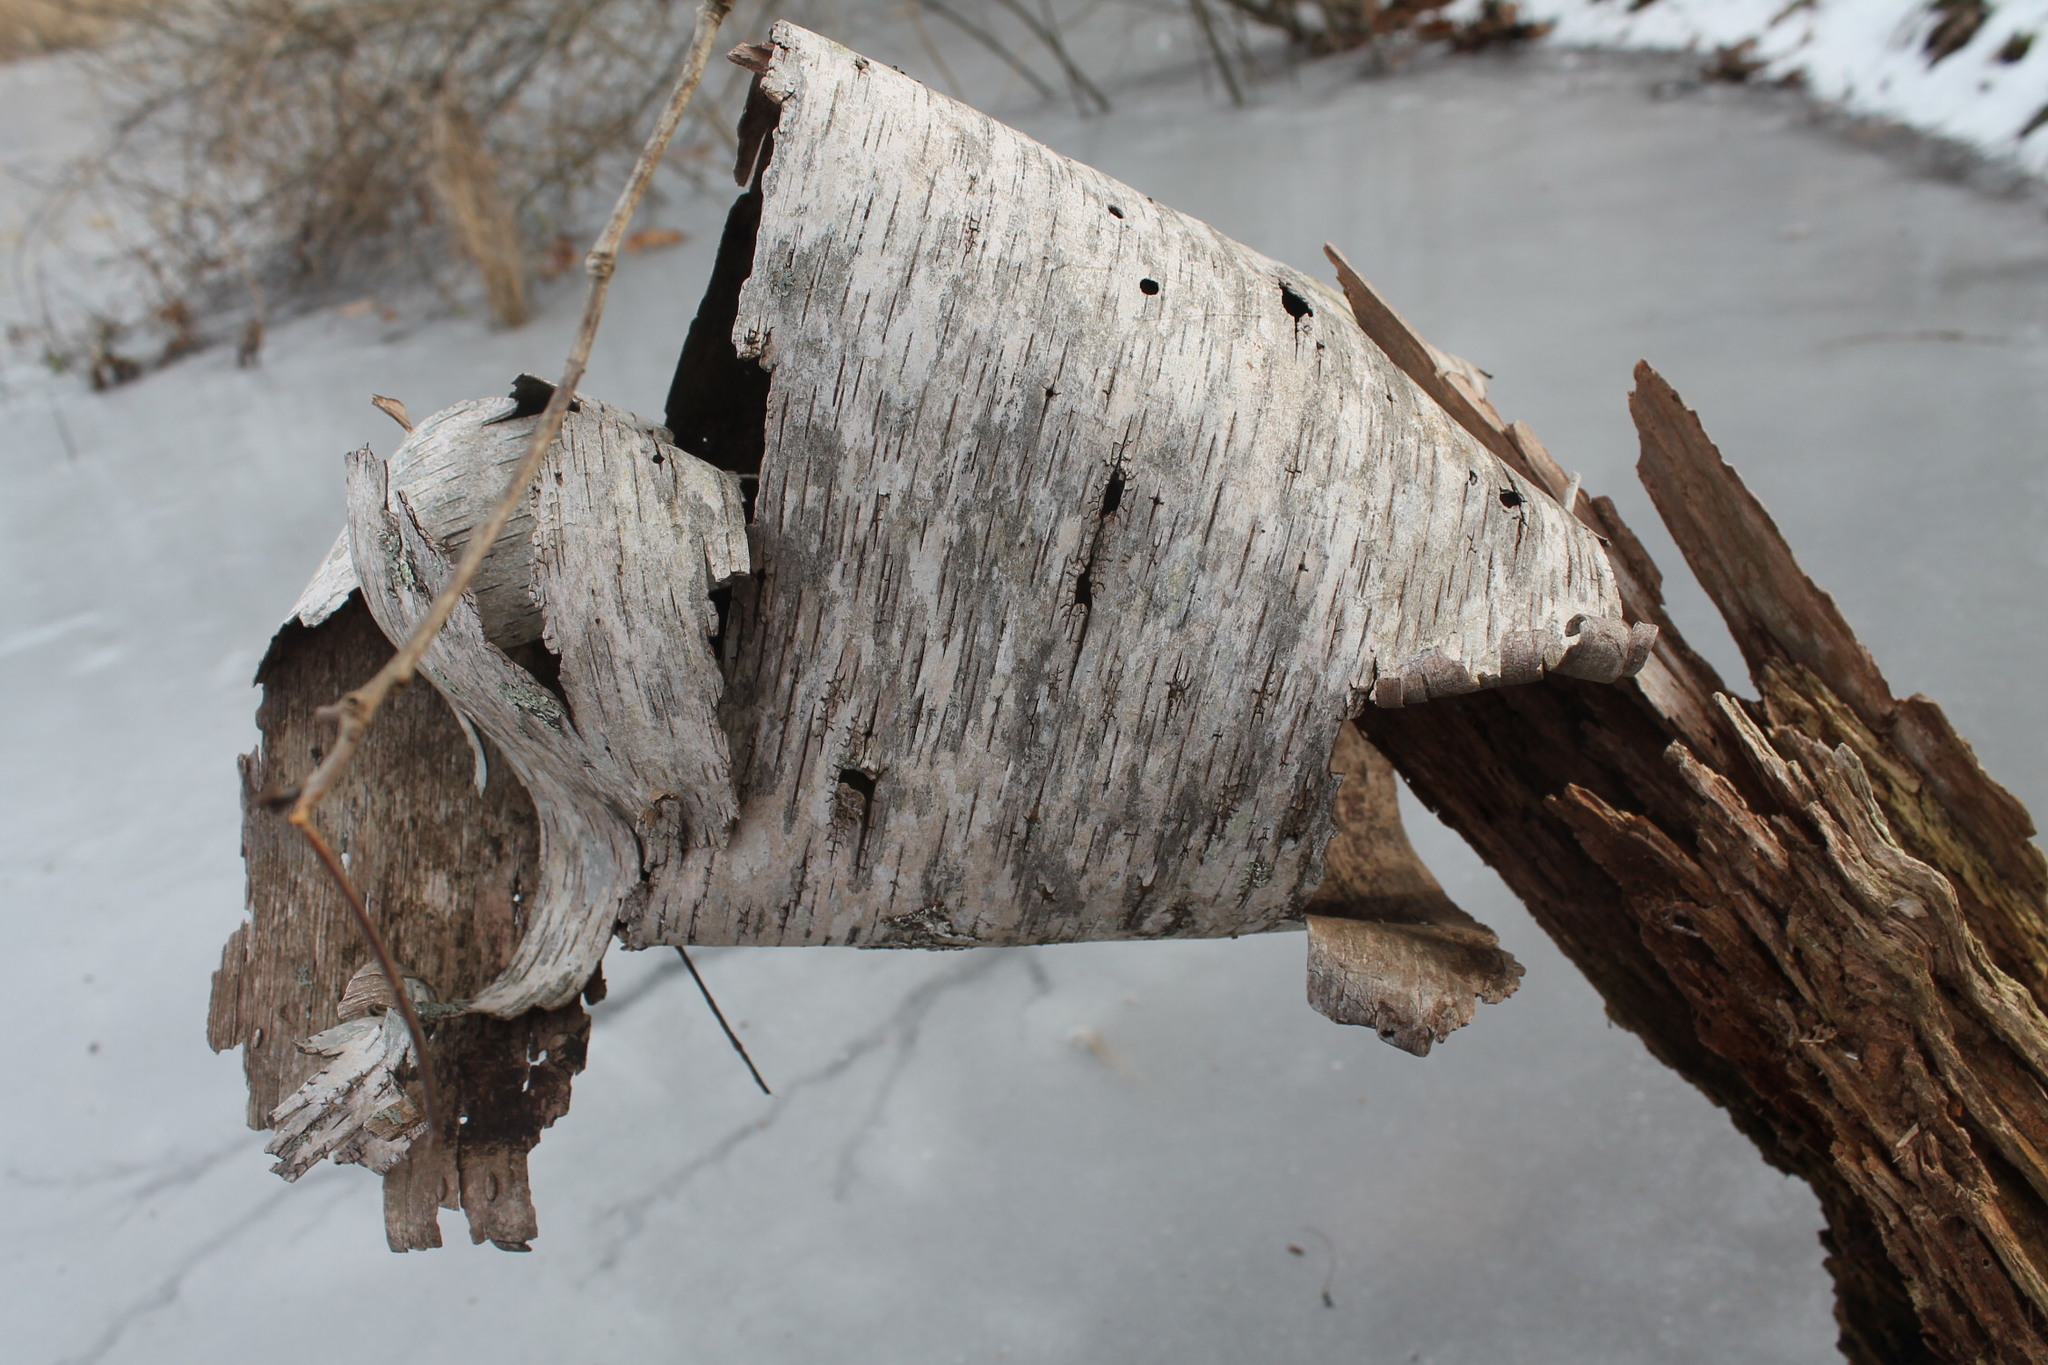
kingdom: Plantae
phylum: Tracheophyta
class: Magnoliopsida
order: Fagales
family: Betulaceae
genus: Betula
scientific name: Betula populifolia
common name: Fire birch
